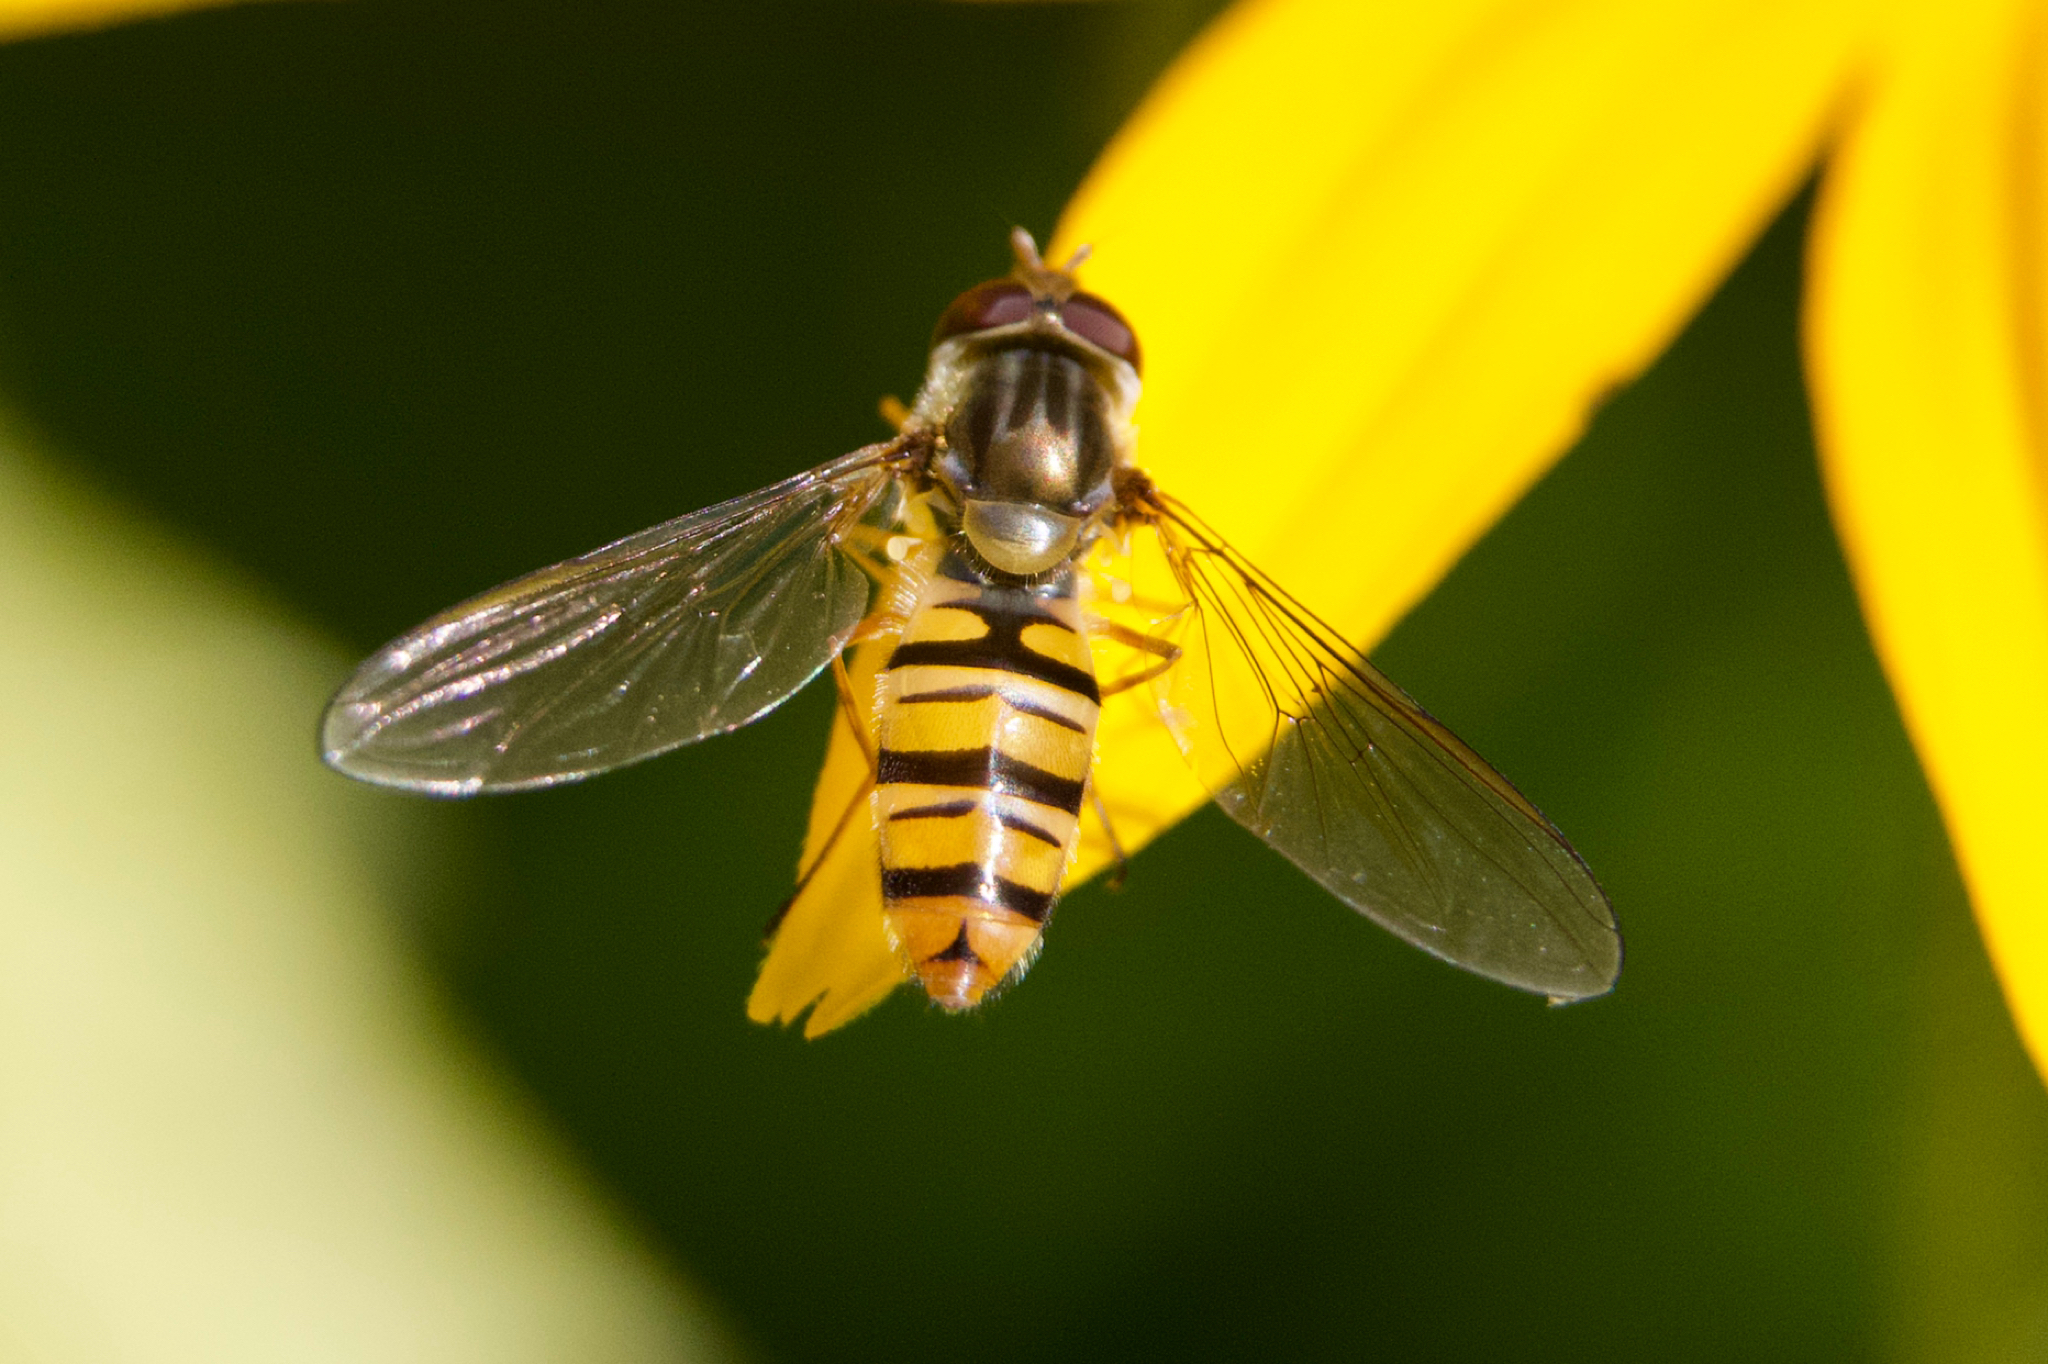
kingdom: Animalia
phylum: Arthropoda
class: Insecta
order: Diptera
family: Syrphidae
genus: Episyrphus
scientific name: Episyrphus balteatus
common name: Marmalade hoverfly
